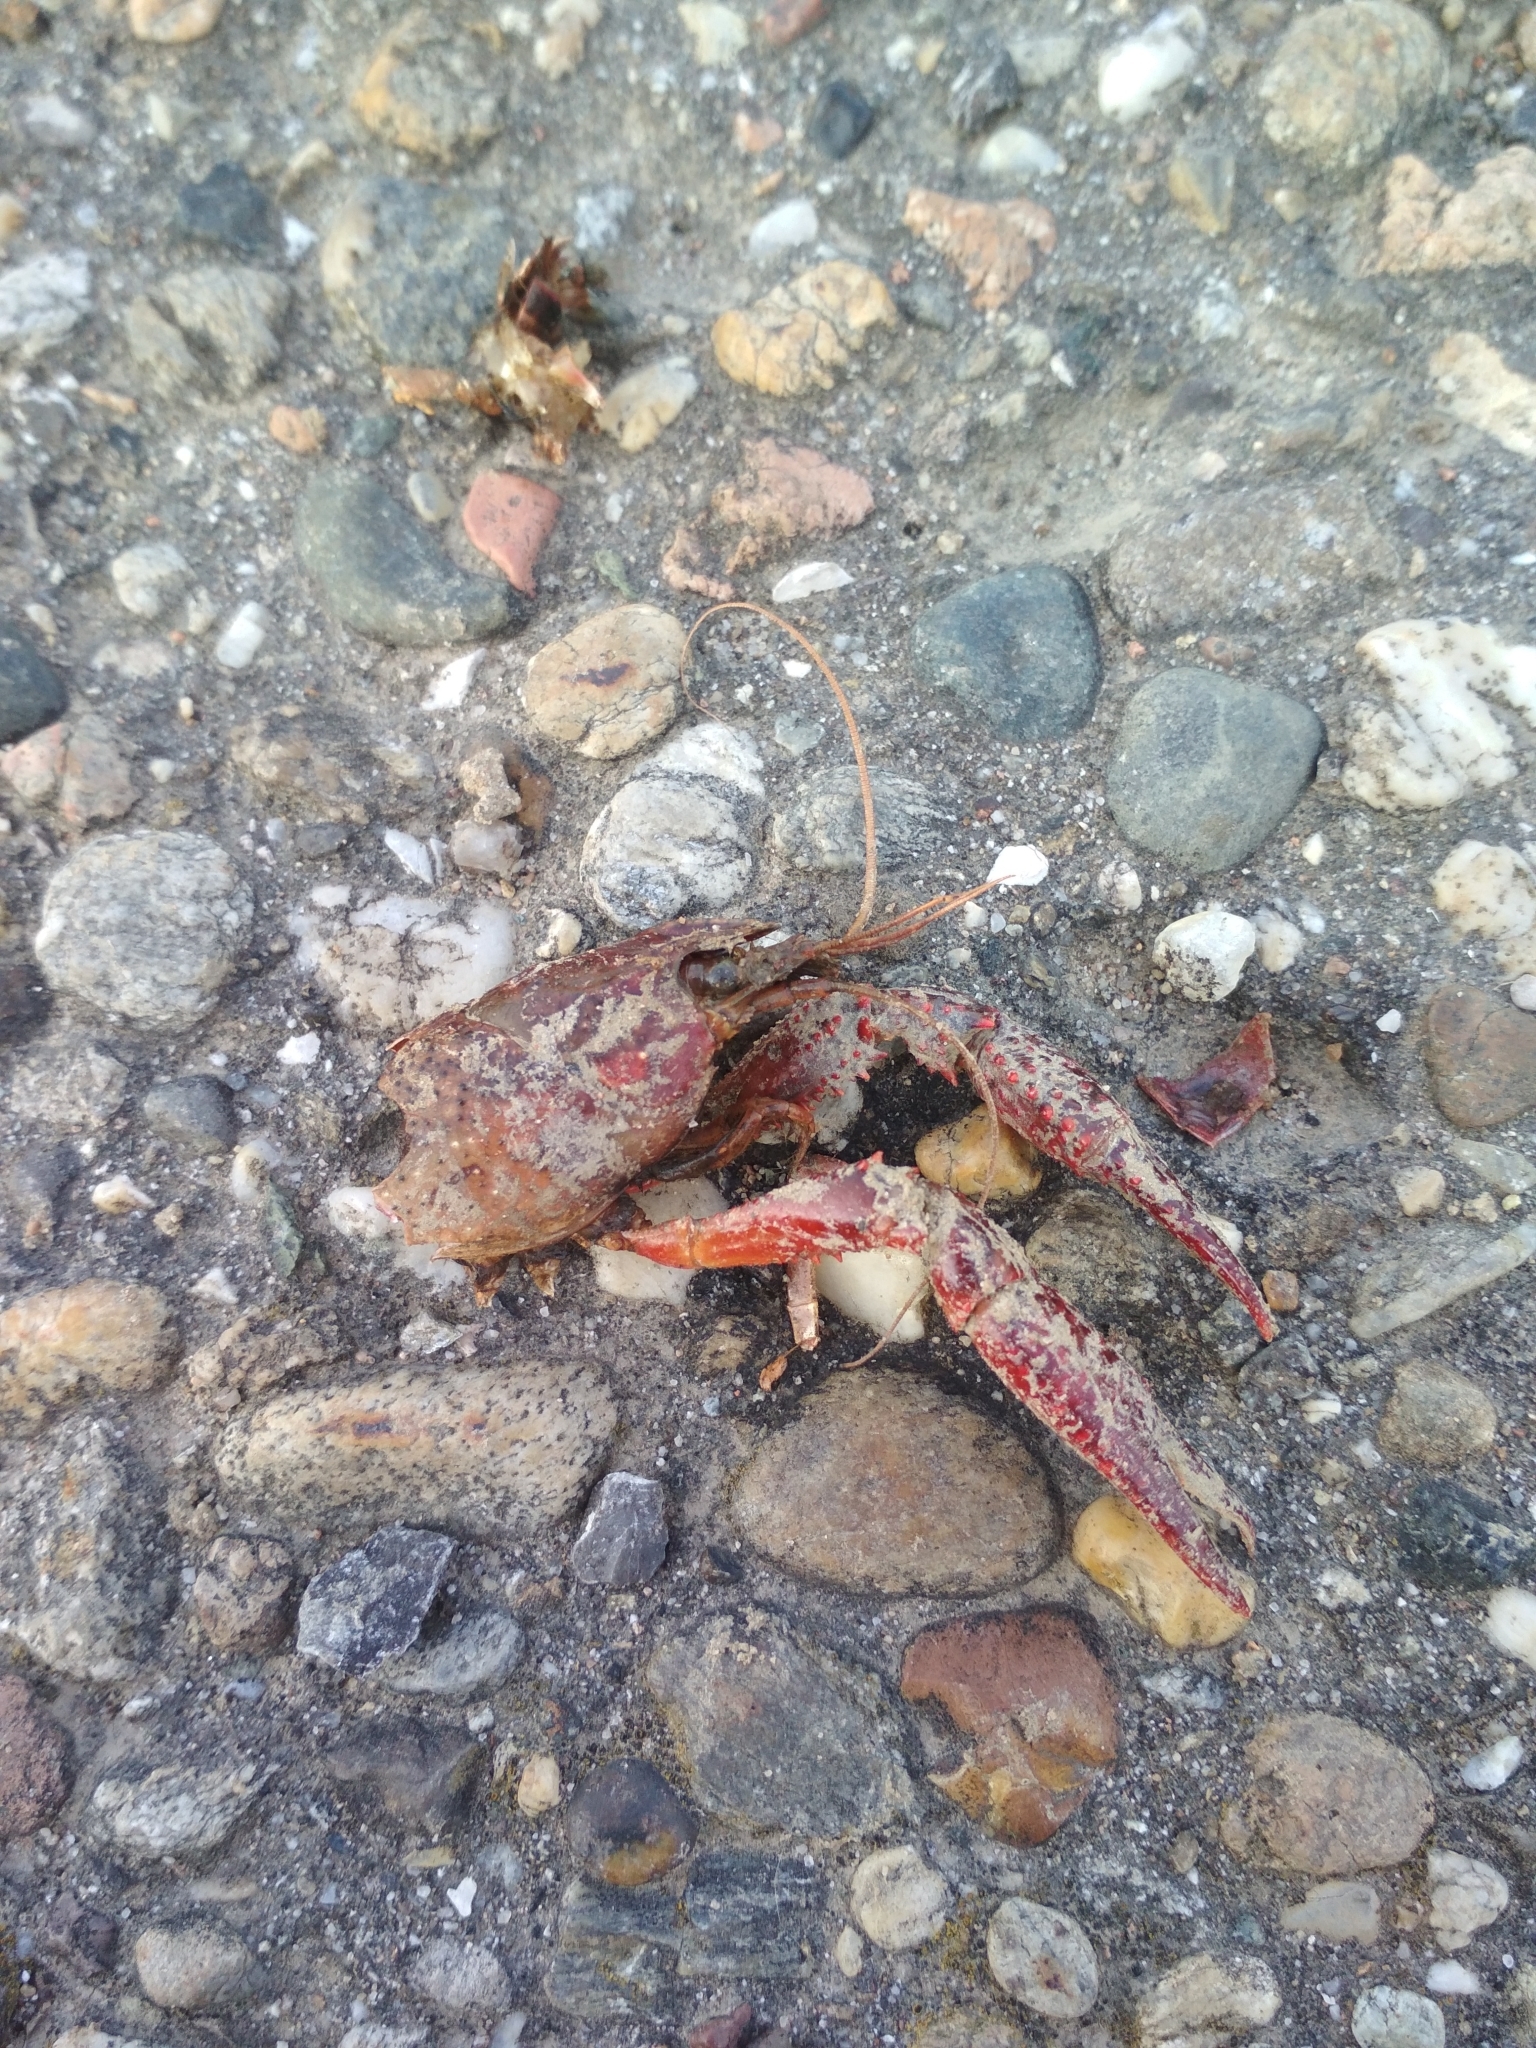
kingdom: Animalia
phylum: Arthropoda
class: Malacostraca
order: Decapoda
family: Cambaridae
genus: Procambarus
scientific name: Procambarus clarkii
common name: Red swamp crayfish
